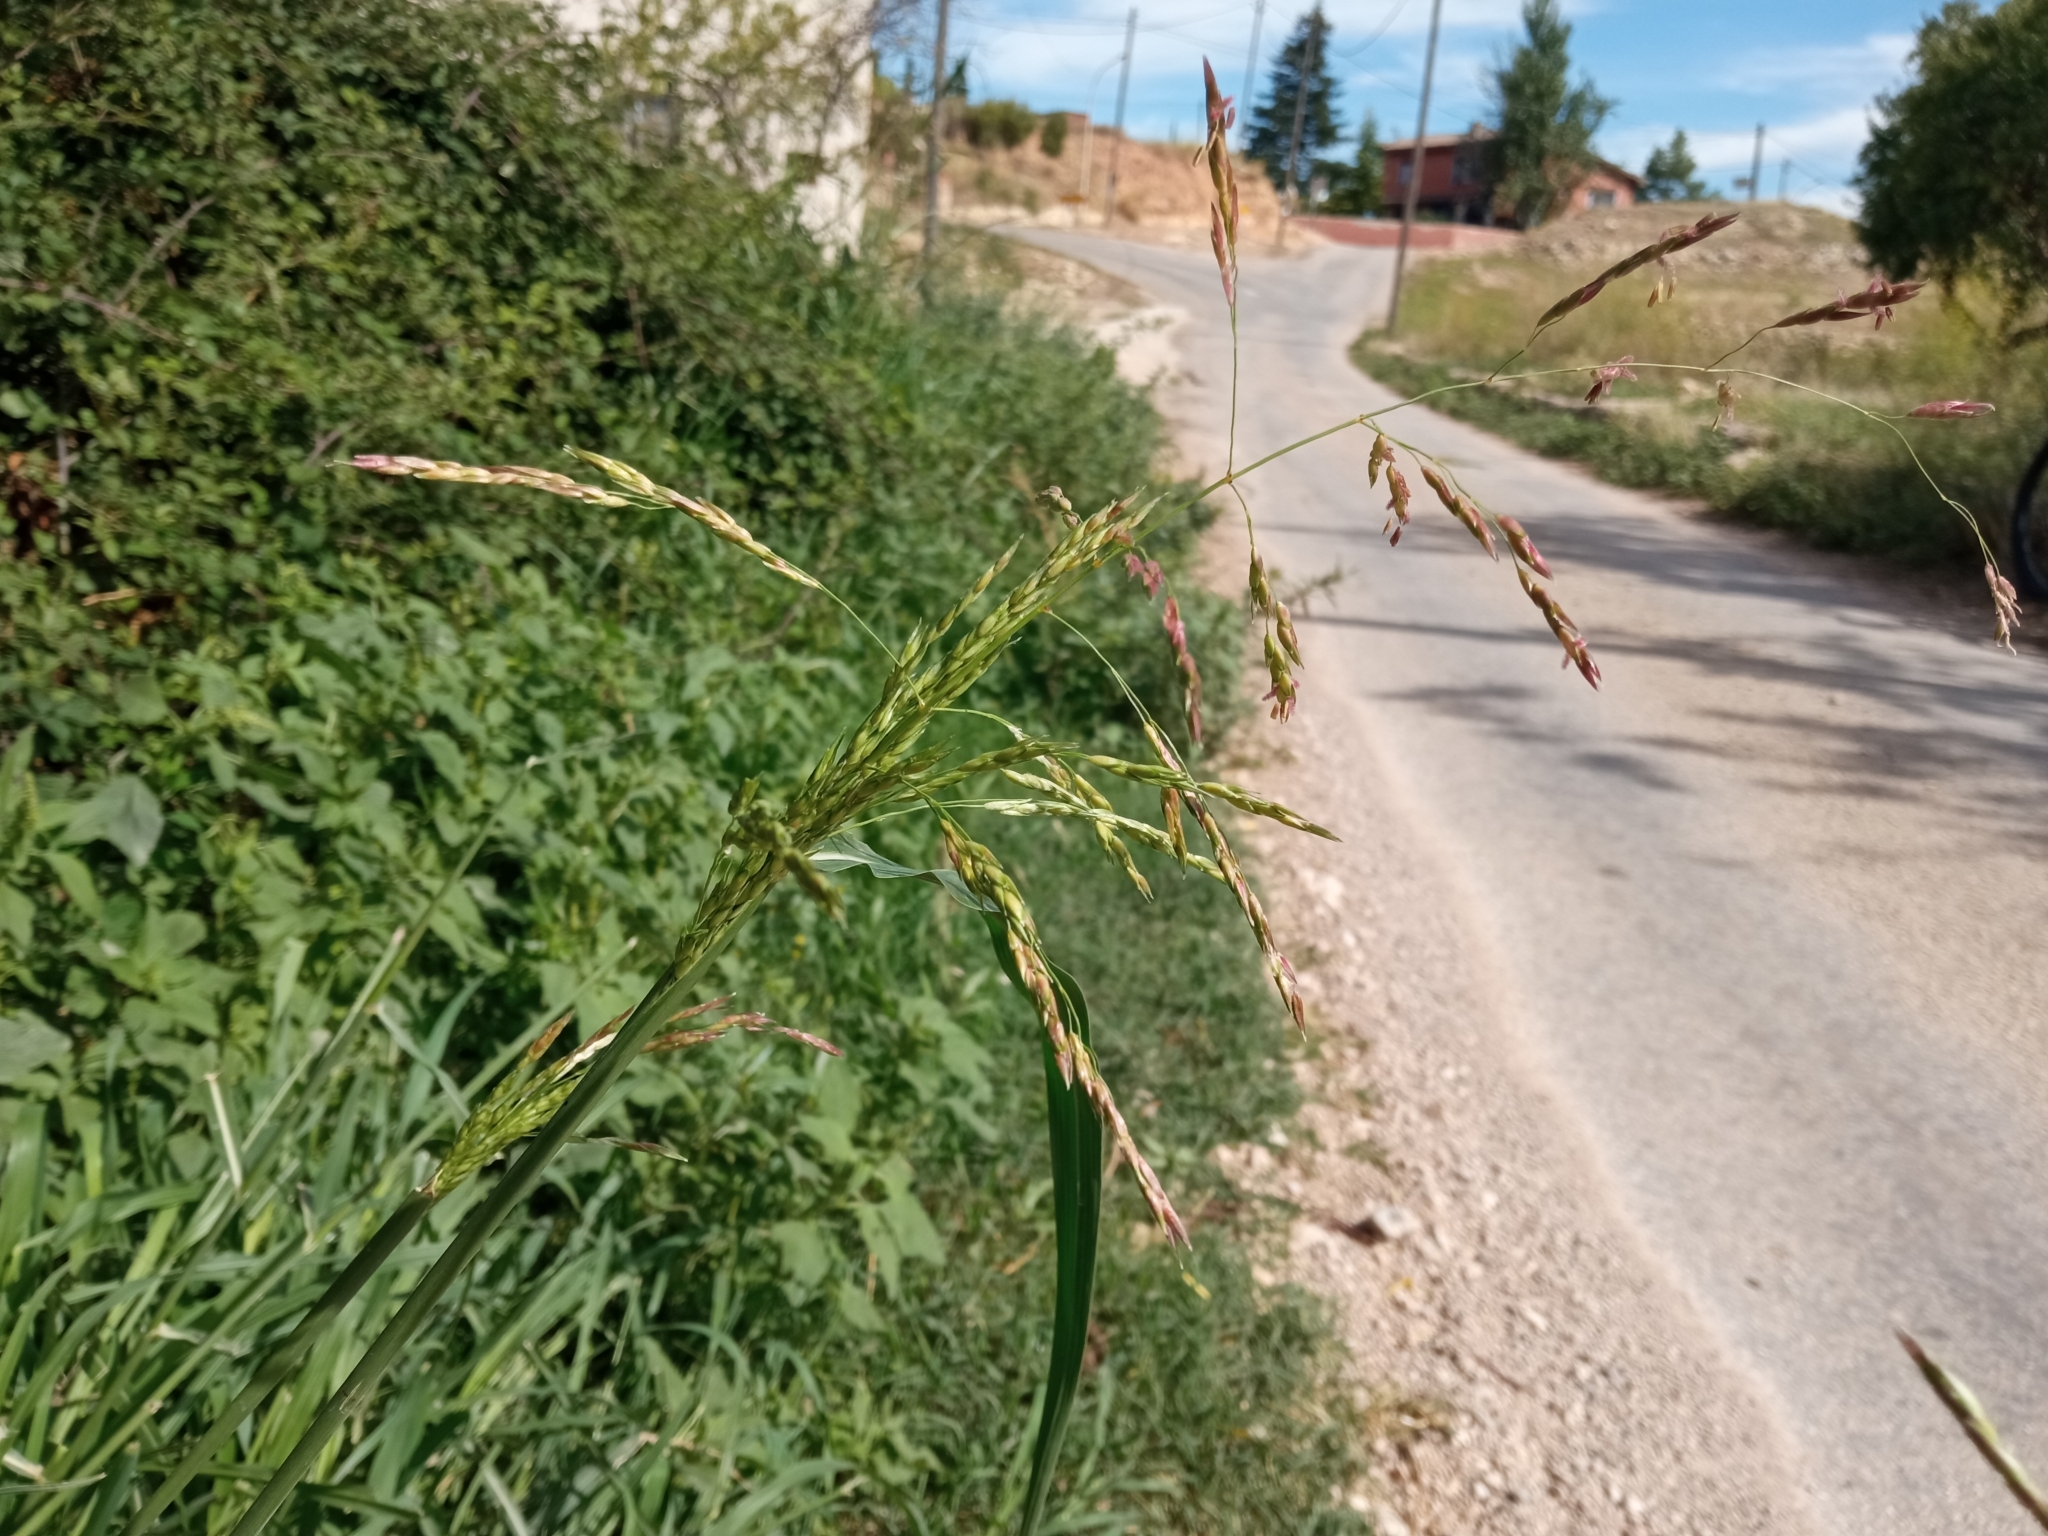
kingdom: Plantae
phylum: Tracheophyta
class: Liliopsida
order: Poales
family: Poaceae
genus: Sorghum
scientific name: Sorghum halepense
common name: Johnson-grass
